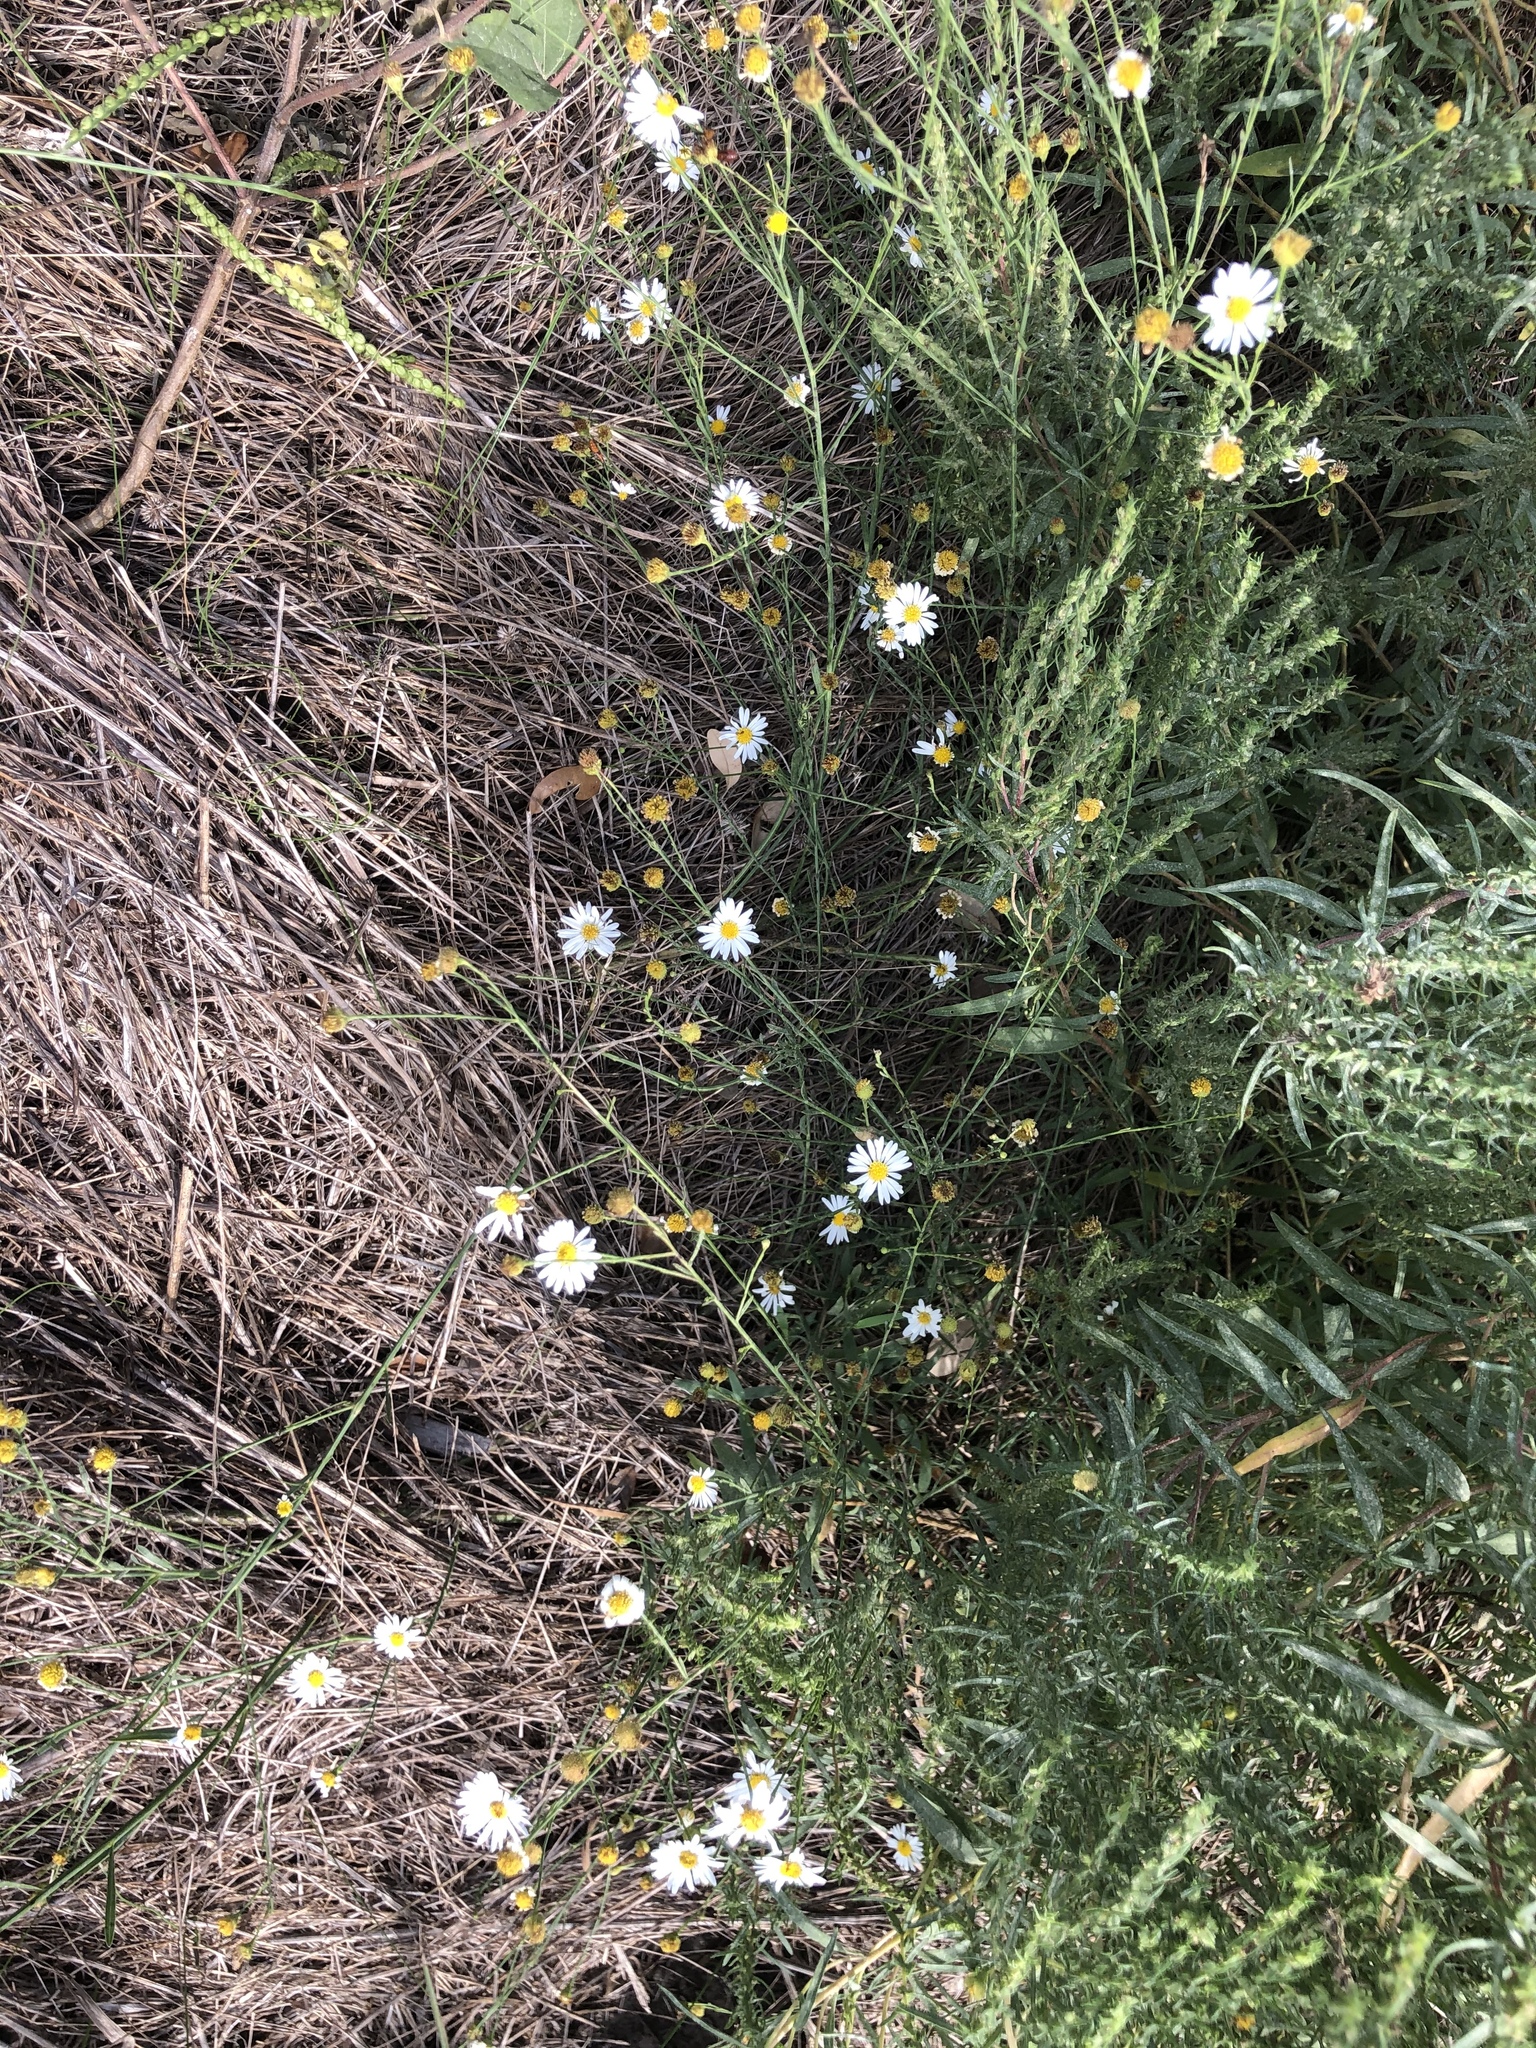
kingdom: Plantae
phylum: Tracheophyta
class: Magnoliopsida
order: Asterales
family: Asteraceae
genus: Symphyotrichum
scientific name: Symphyotrichum divaricatum
